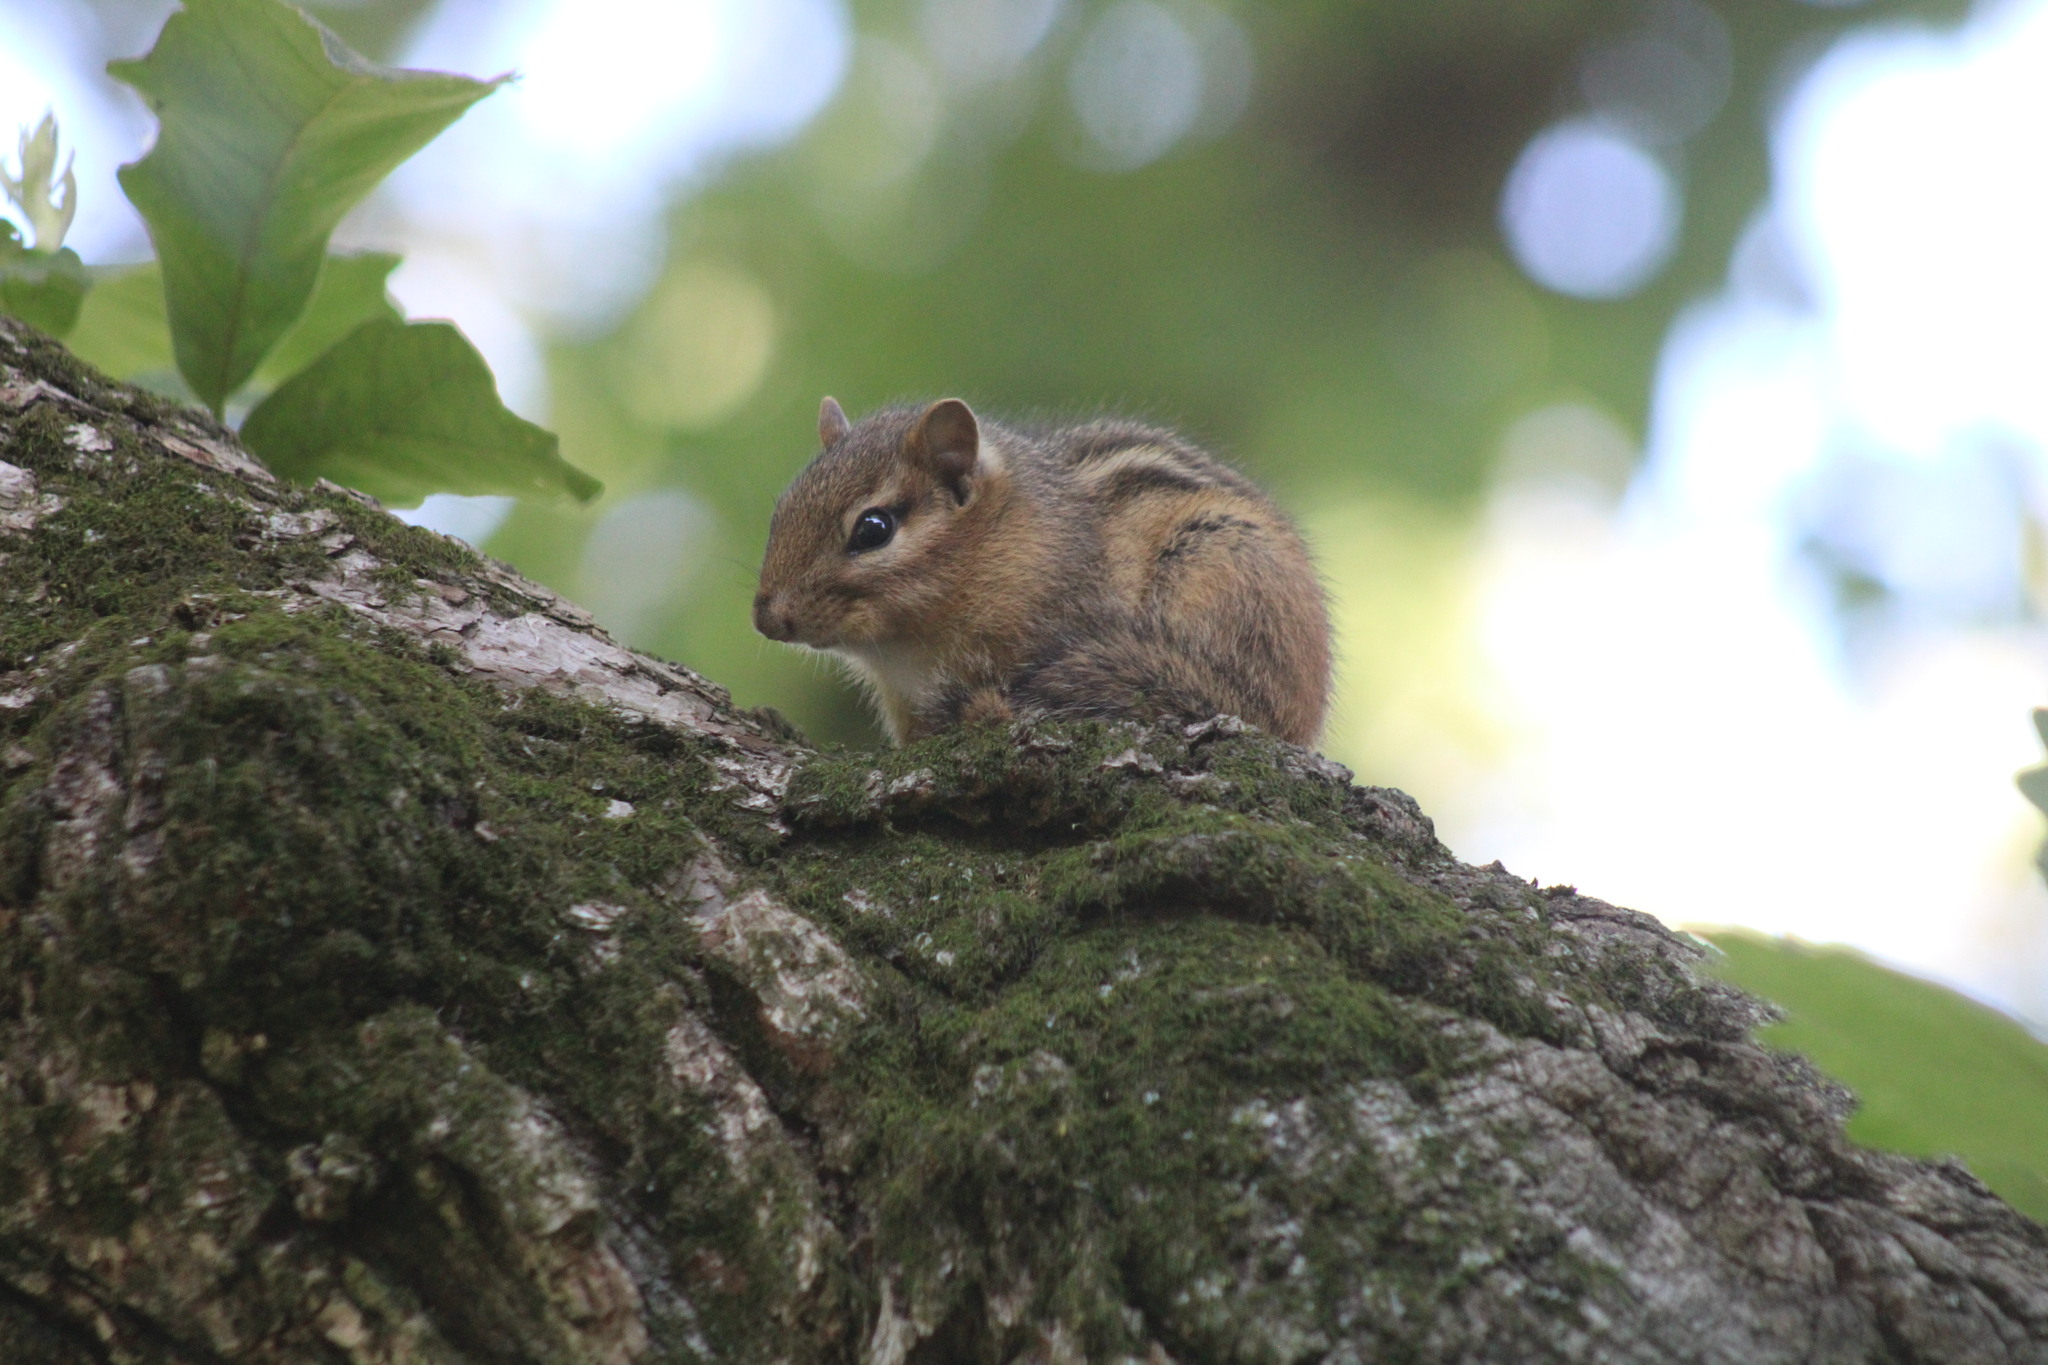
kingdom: Animalia
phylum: Chordata
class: Mammalia
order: Rodentia
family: Sciuridae
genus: Tamias
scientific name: Tamias striatus
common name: Eastern chipmunk
